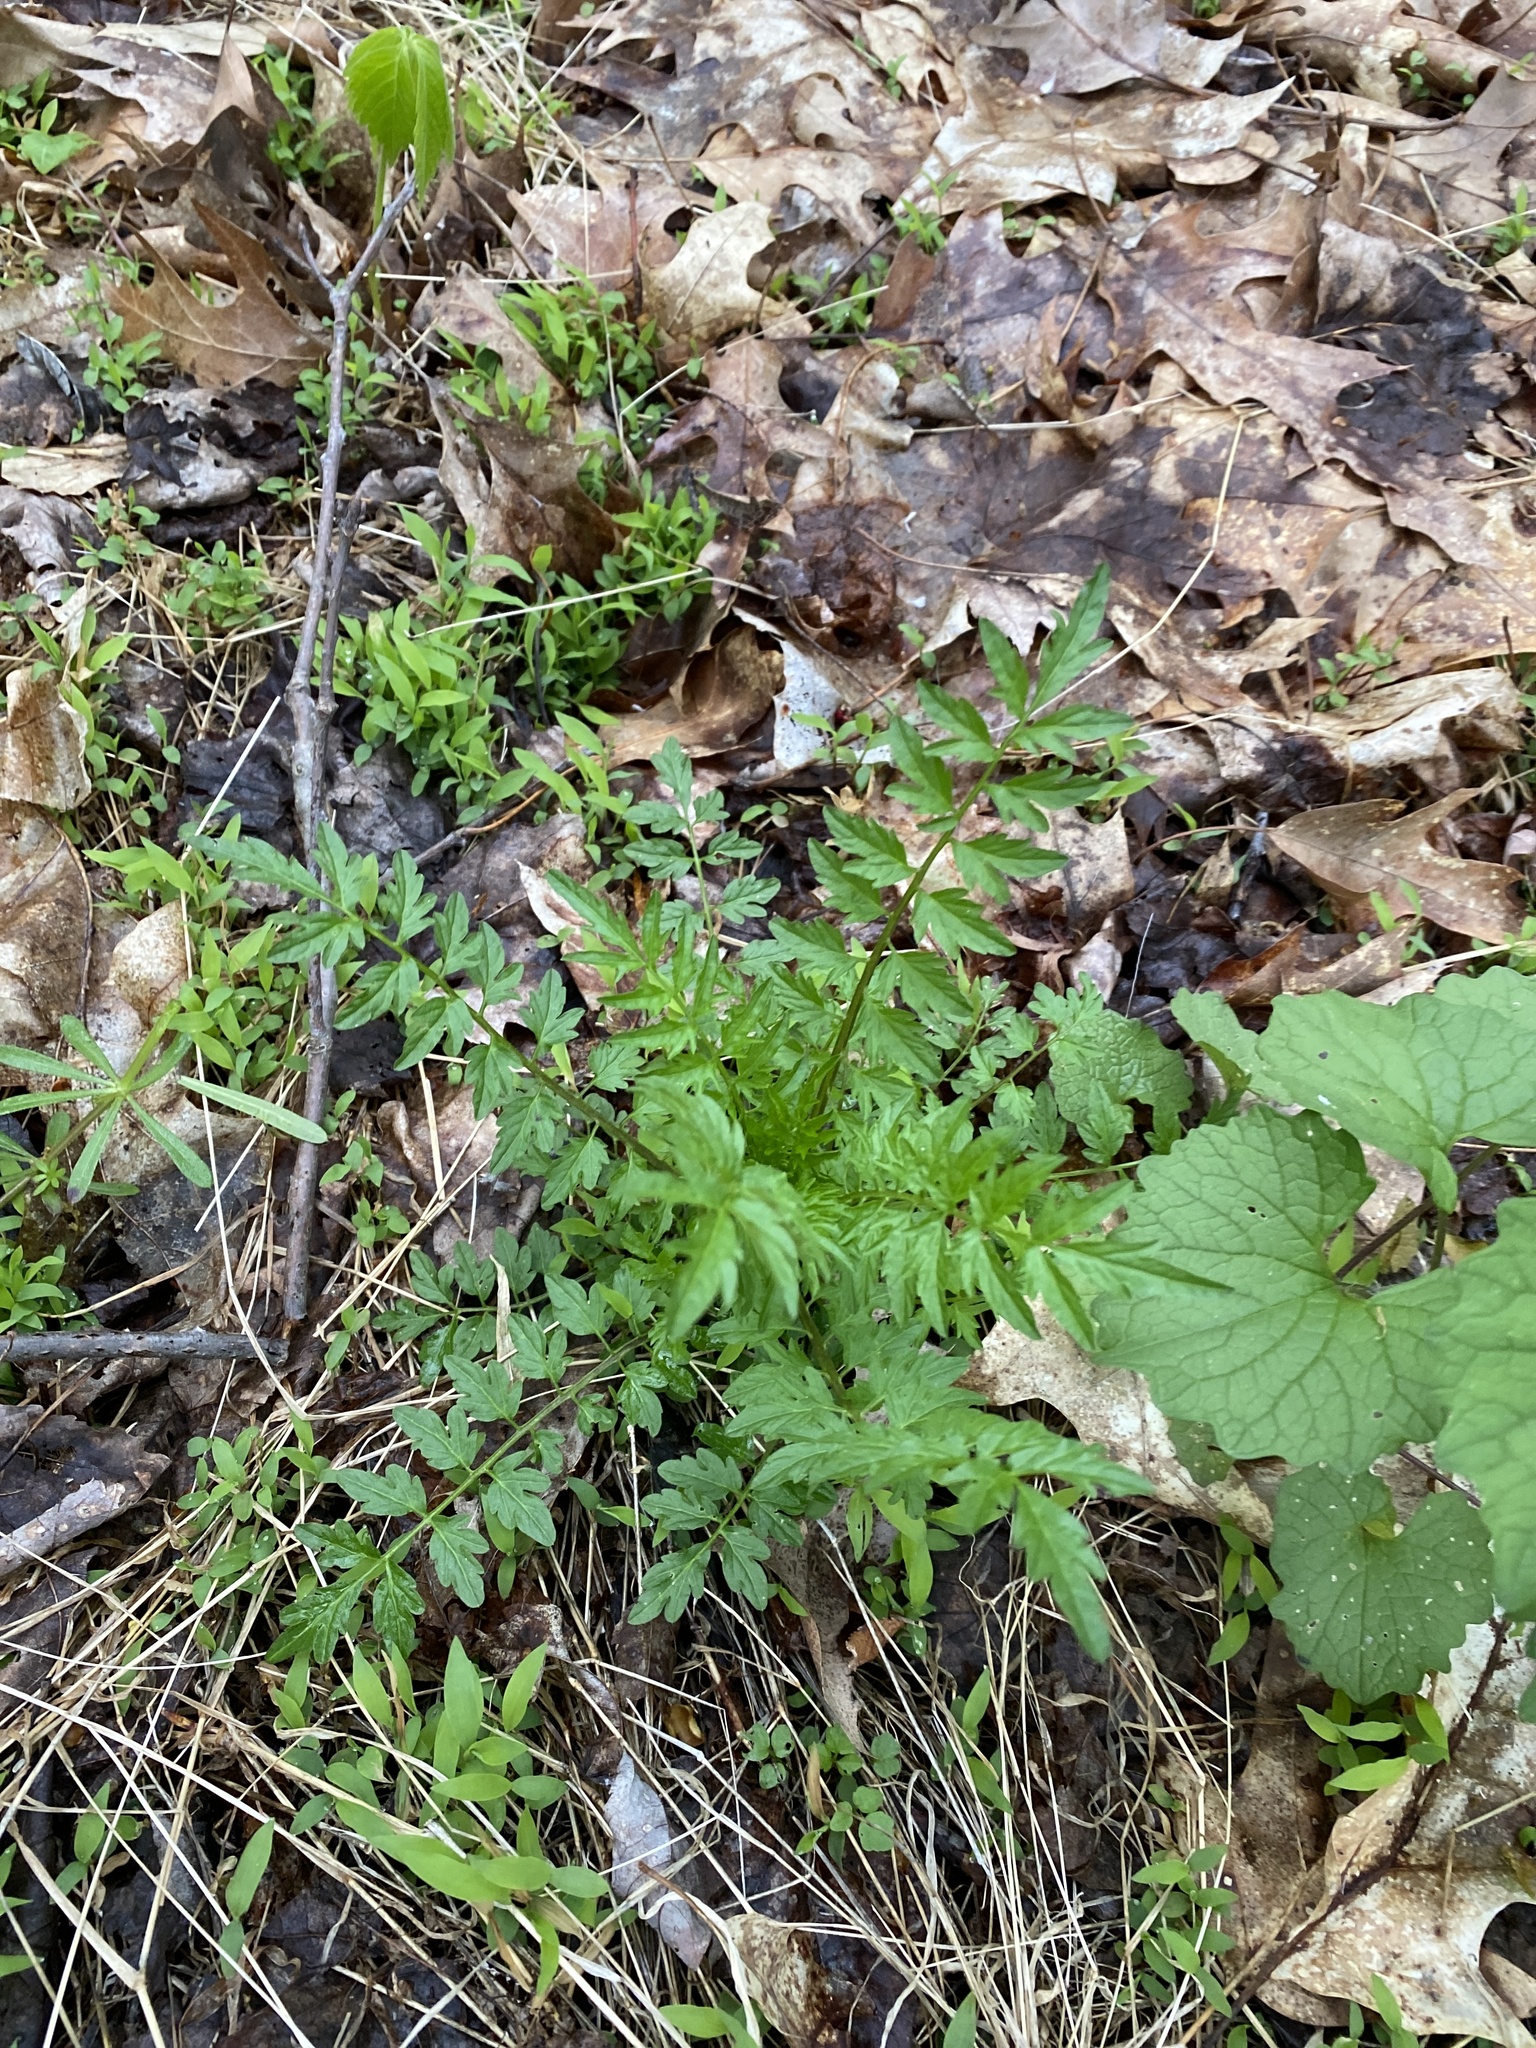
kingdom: Plantae
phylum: Tracheophyta
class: Magnoliopsida
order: Brassicales
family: Brassicaceae
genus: Cardamine
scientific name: Cardamine impatiens
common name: Narrow-leaved bitter-cress
